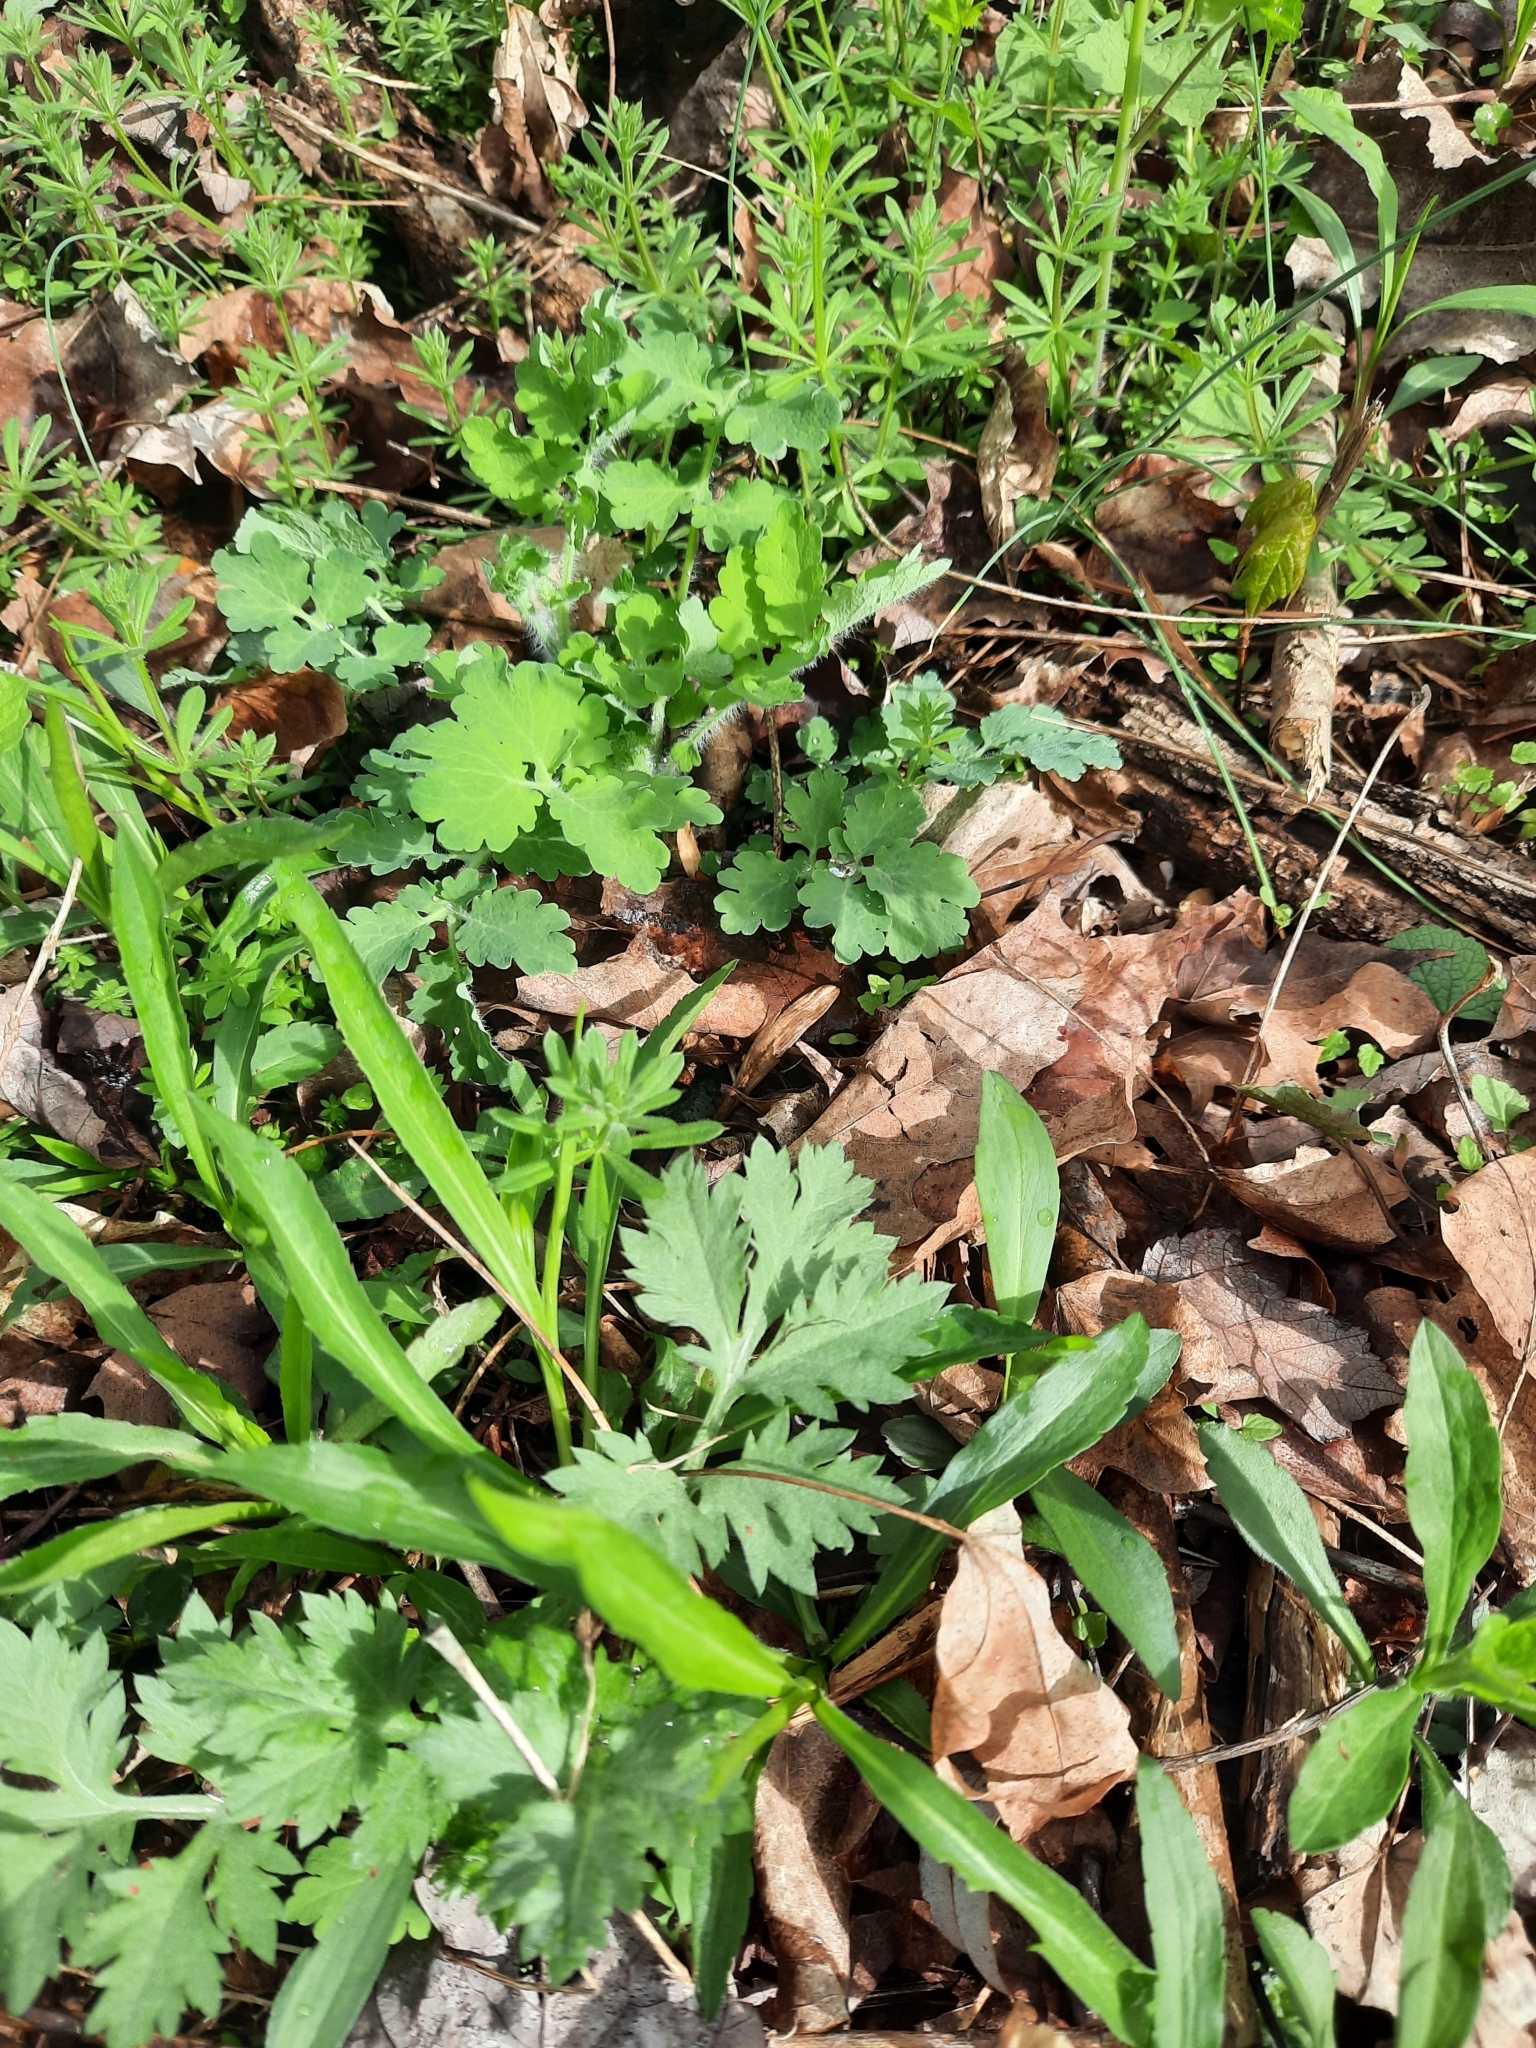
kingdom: Plantae
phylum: Tracheophyta
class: Magnoliopsida
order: Ranunculales
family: Papaveraceae
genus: Chelidonium
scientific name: Chelidonium majus
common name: Greater celandine
